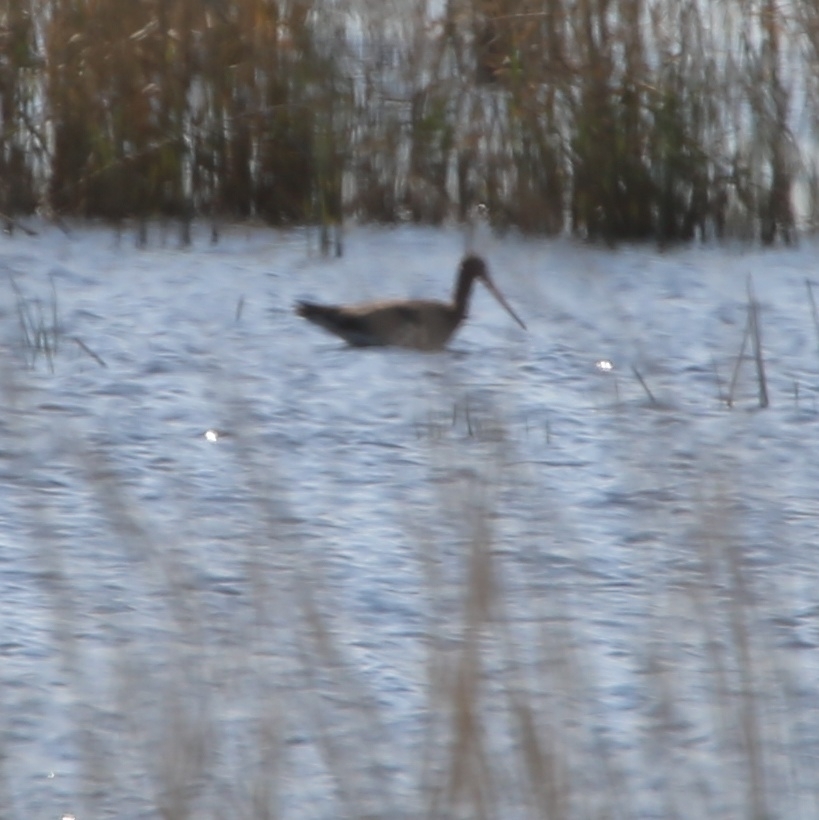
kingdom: Animalia
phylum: Chordata
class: Aves
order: Charadriiformes
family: Scolopacidae
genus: Limosa
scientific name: Limosa limosa
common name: Black-tailed godwit
